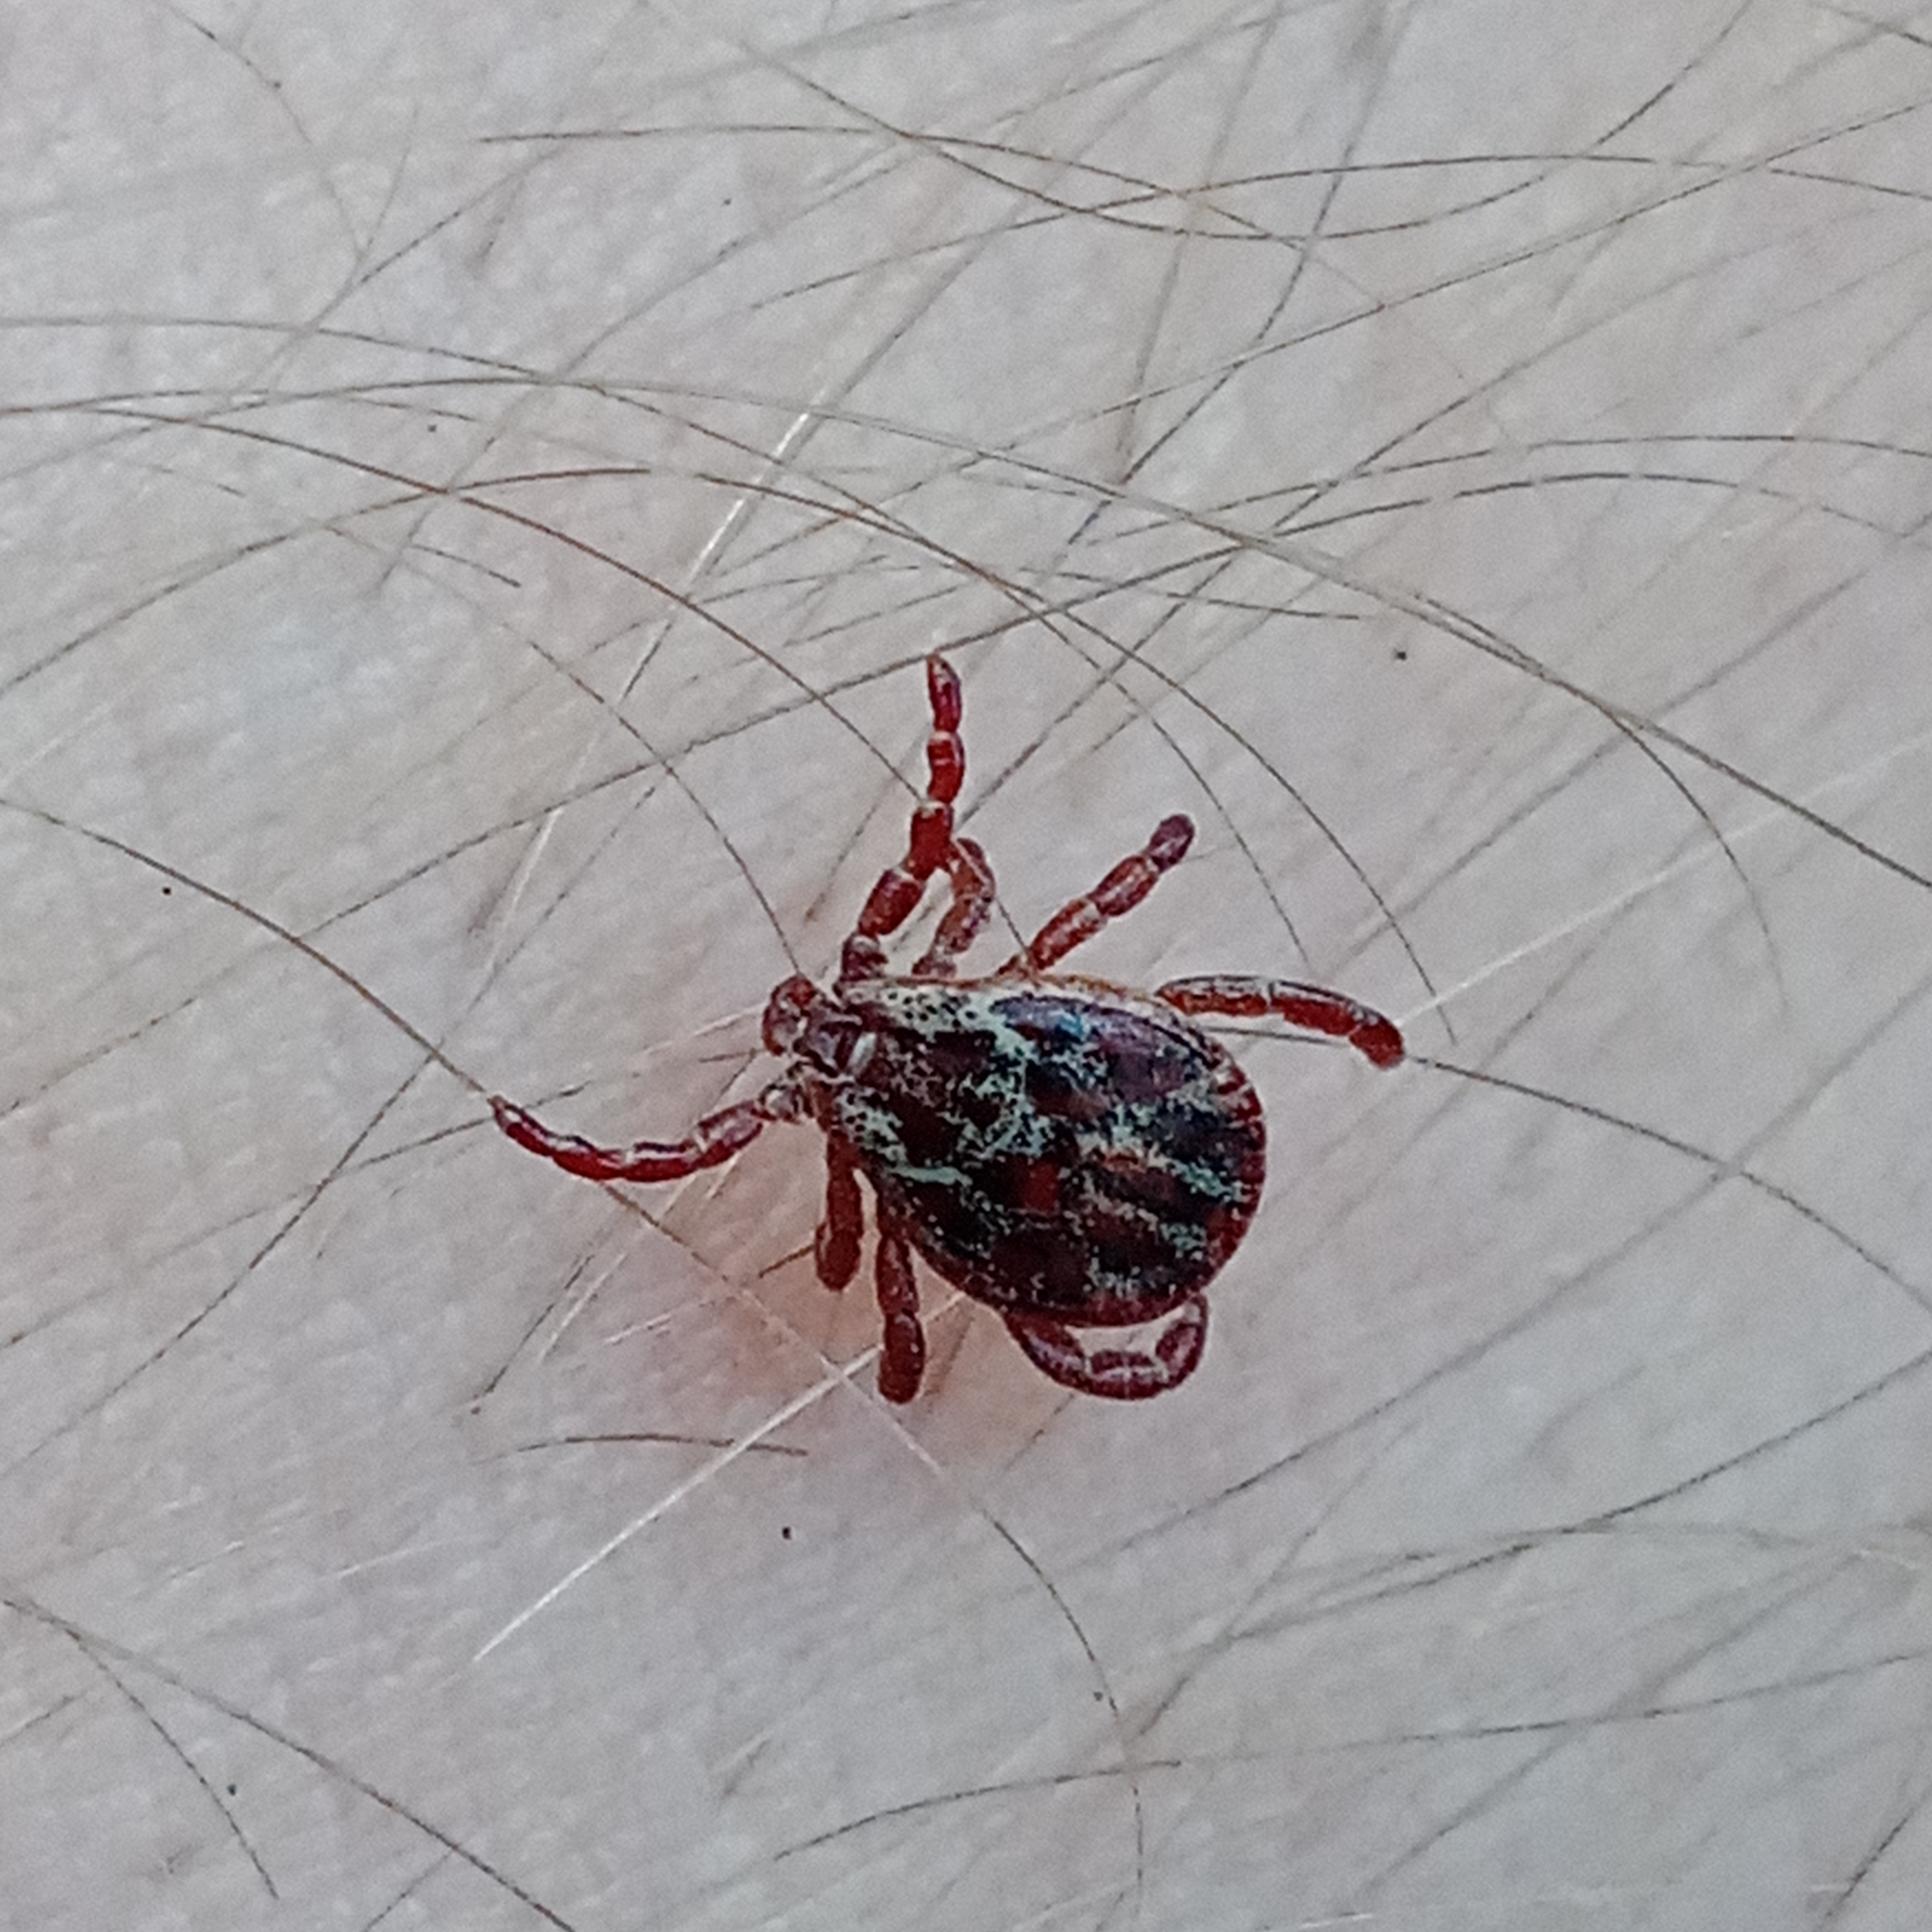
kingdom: Animalia
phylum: Arthropoda
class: Arachnida
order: Ixodida
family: Ixodidae
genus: Dermacentor
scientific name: Dermacentor reticulatus
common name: Ornate cow tick
